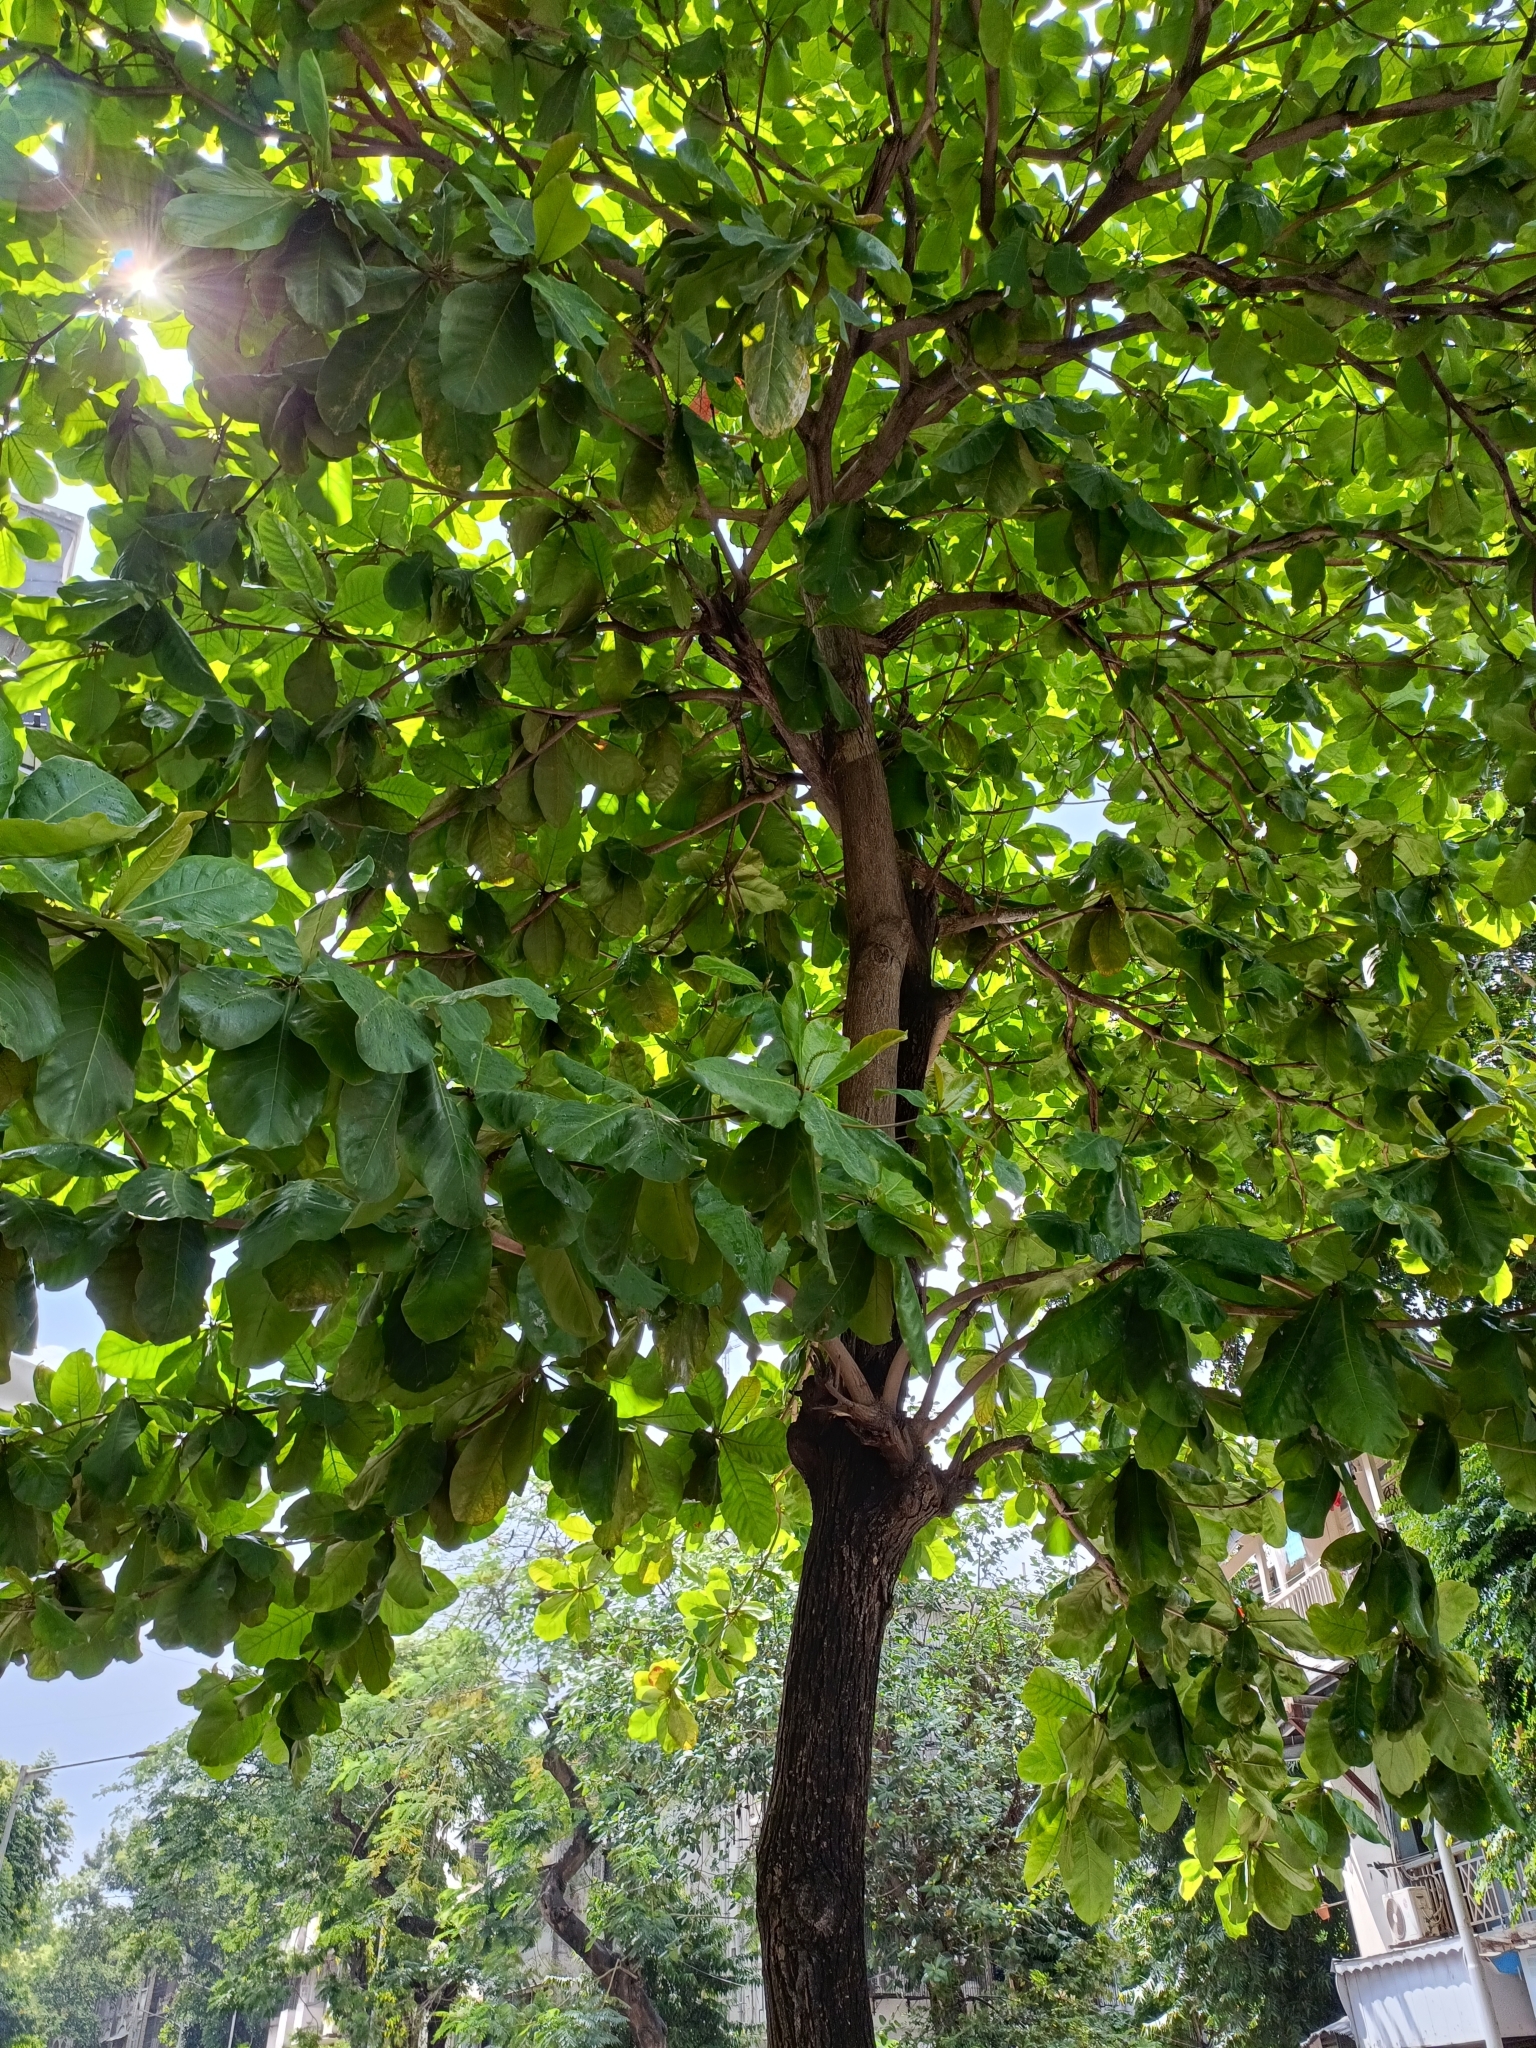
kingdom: Plantae
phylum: Tracheophyta
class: Magnoliopsida
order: Myrtales
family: Combretaceae
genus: Terminalia
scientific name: Terminalia catappa
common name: Tropical almond
